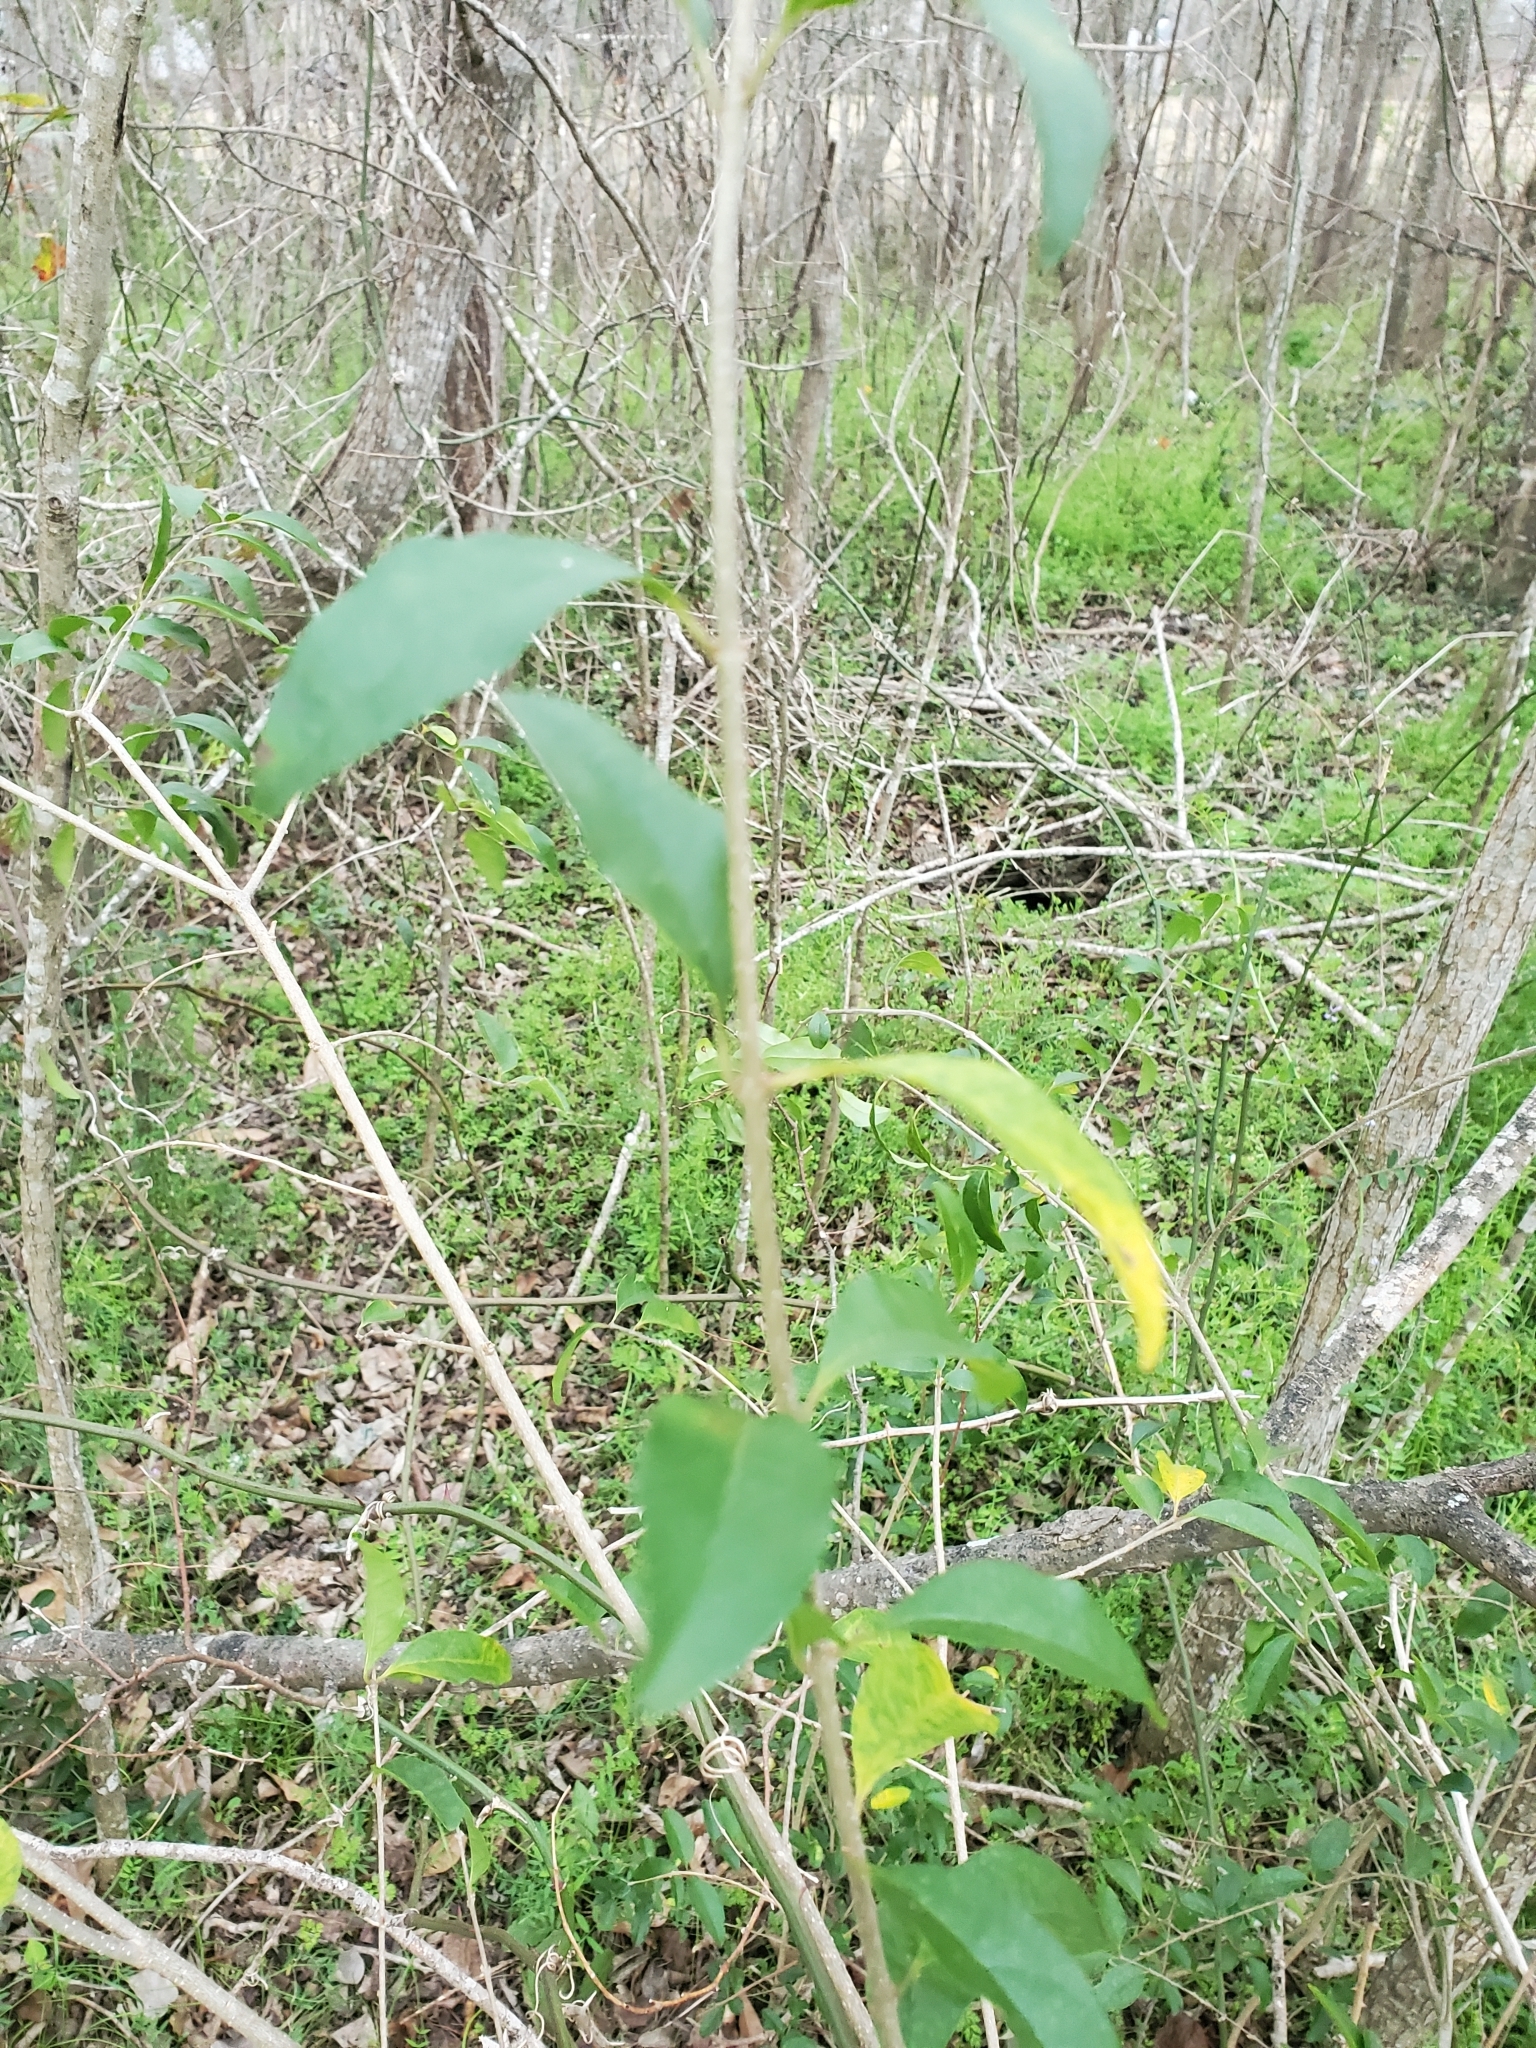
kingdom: Plantae
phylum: Tracheophyta
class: Magnoliopsida
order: Lamiales
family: Oleaceae
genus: Ligustrum
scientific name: Ligustrum sinense
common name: Chinese privet
